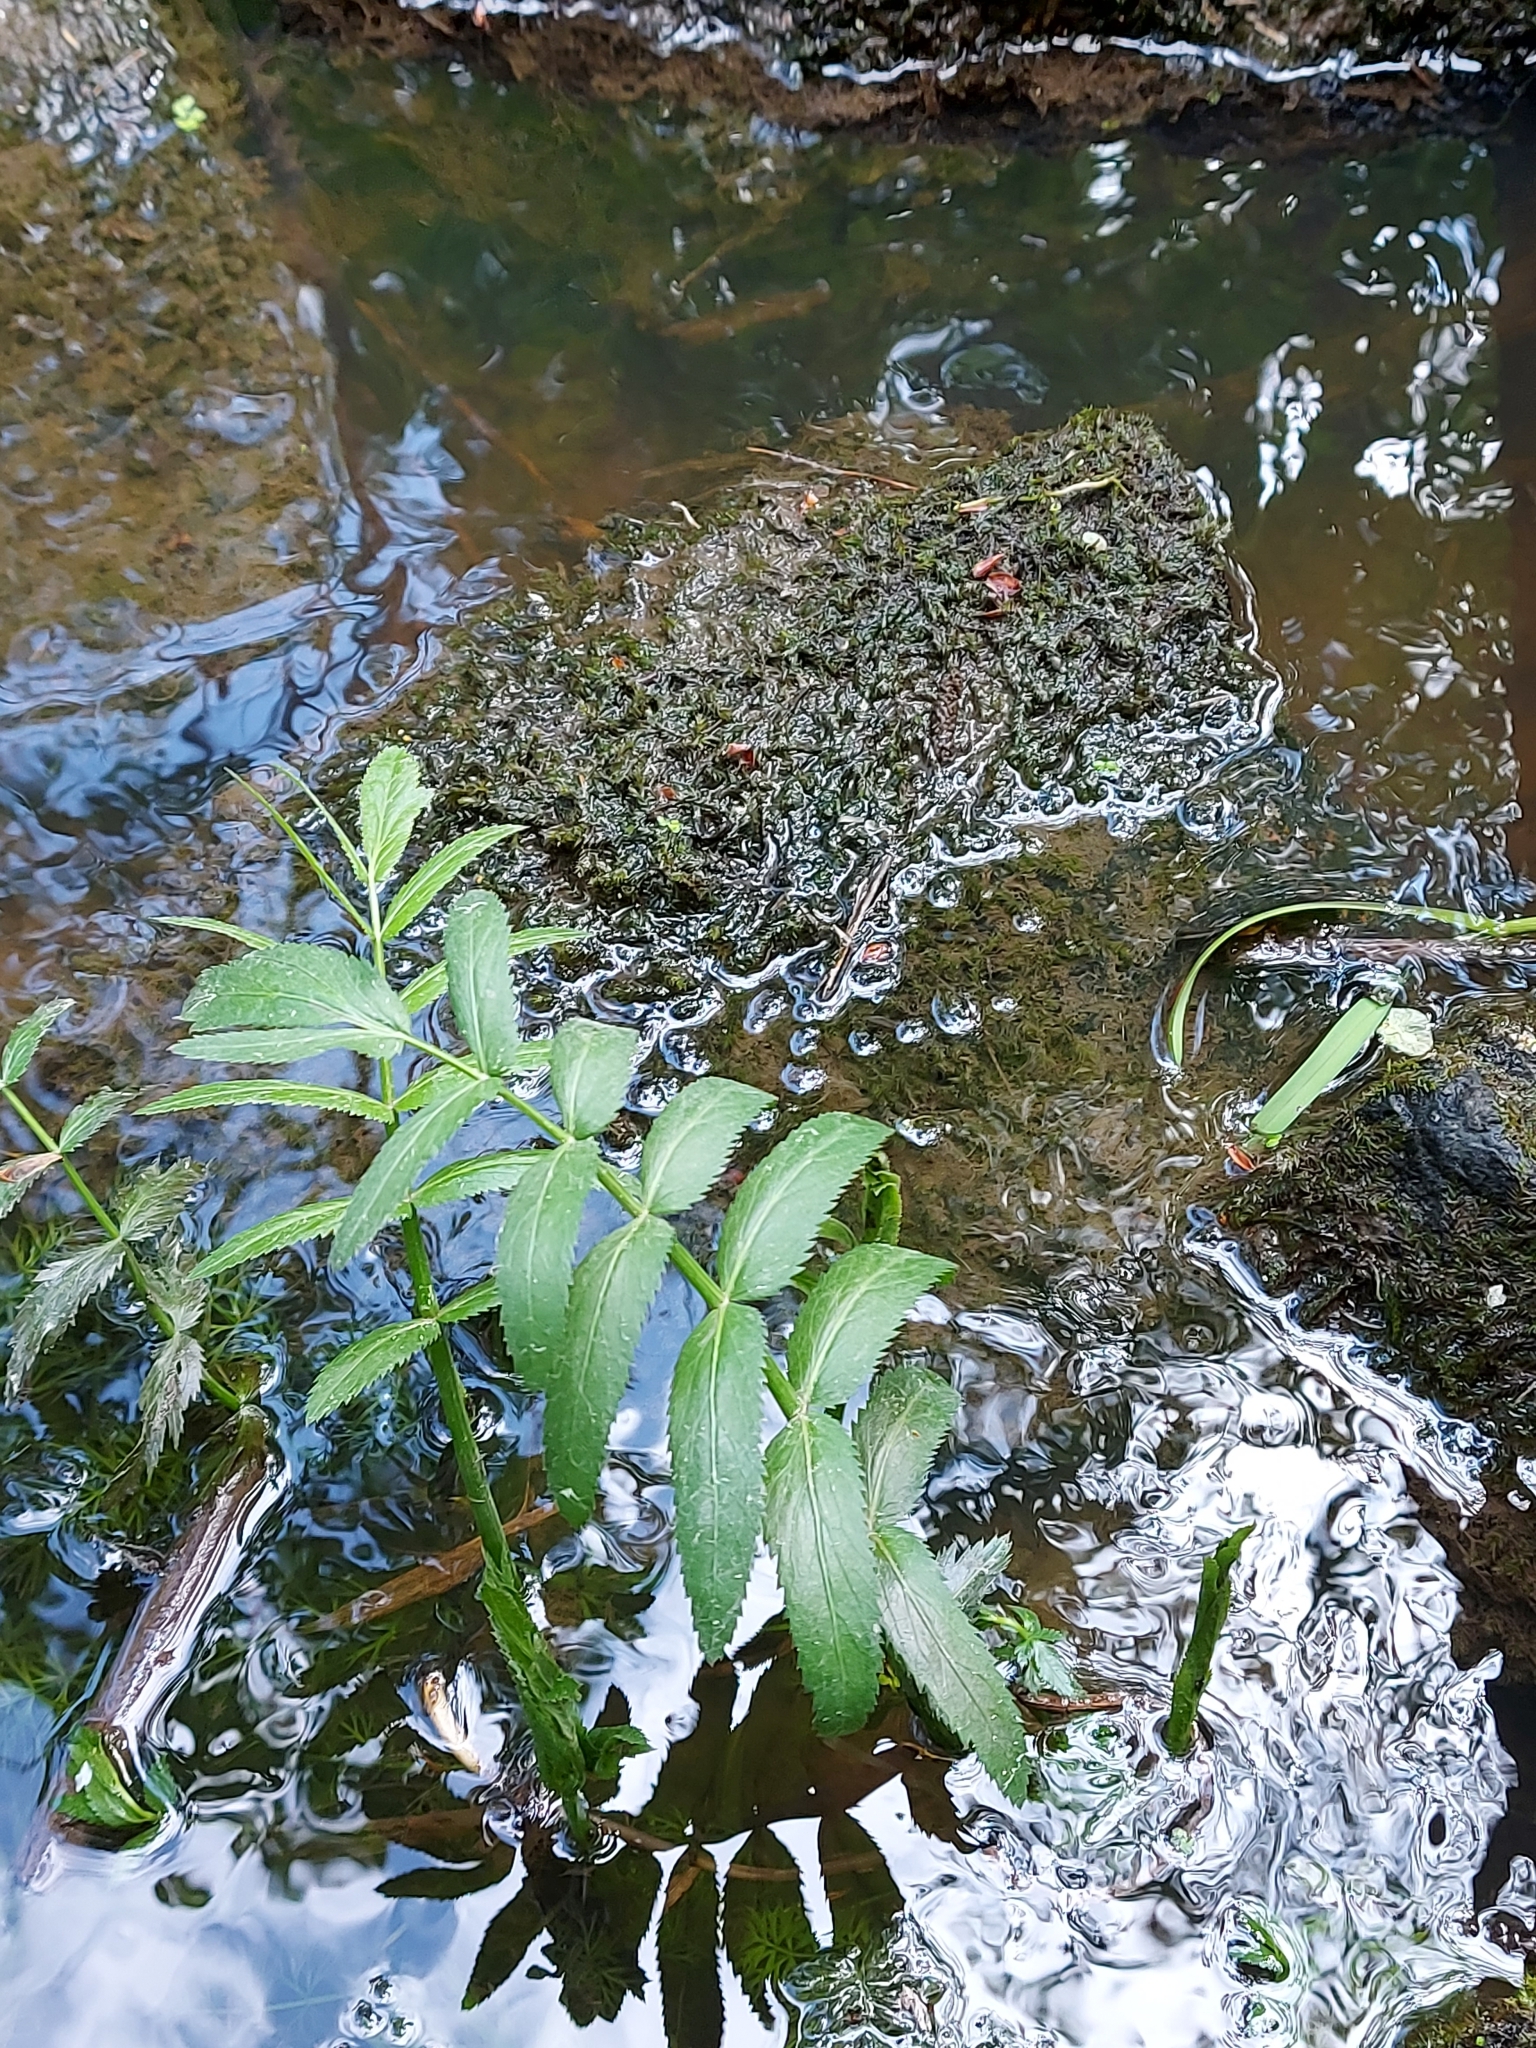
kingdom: Plantae
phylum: Tracheophyta
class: Magnoliopsida
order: Apiales
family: Apiaceae
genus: Sium
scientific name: Sium latifolium
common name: Greater water-parsnip
